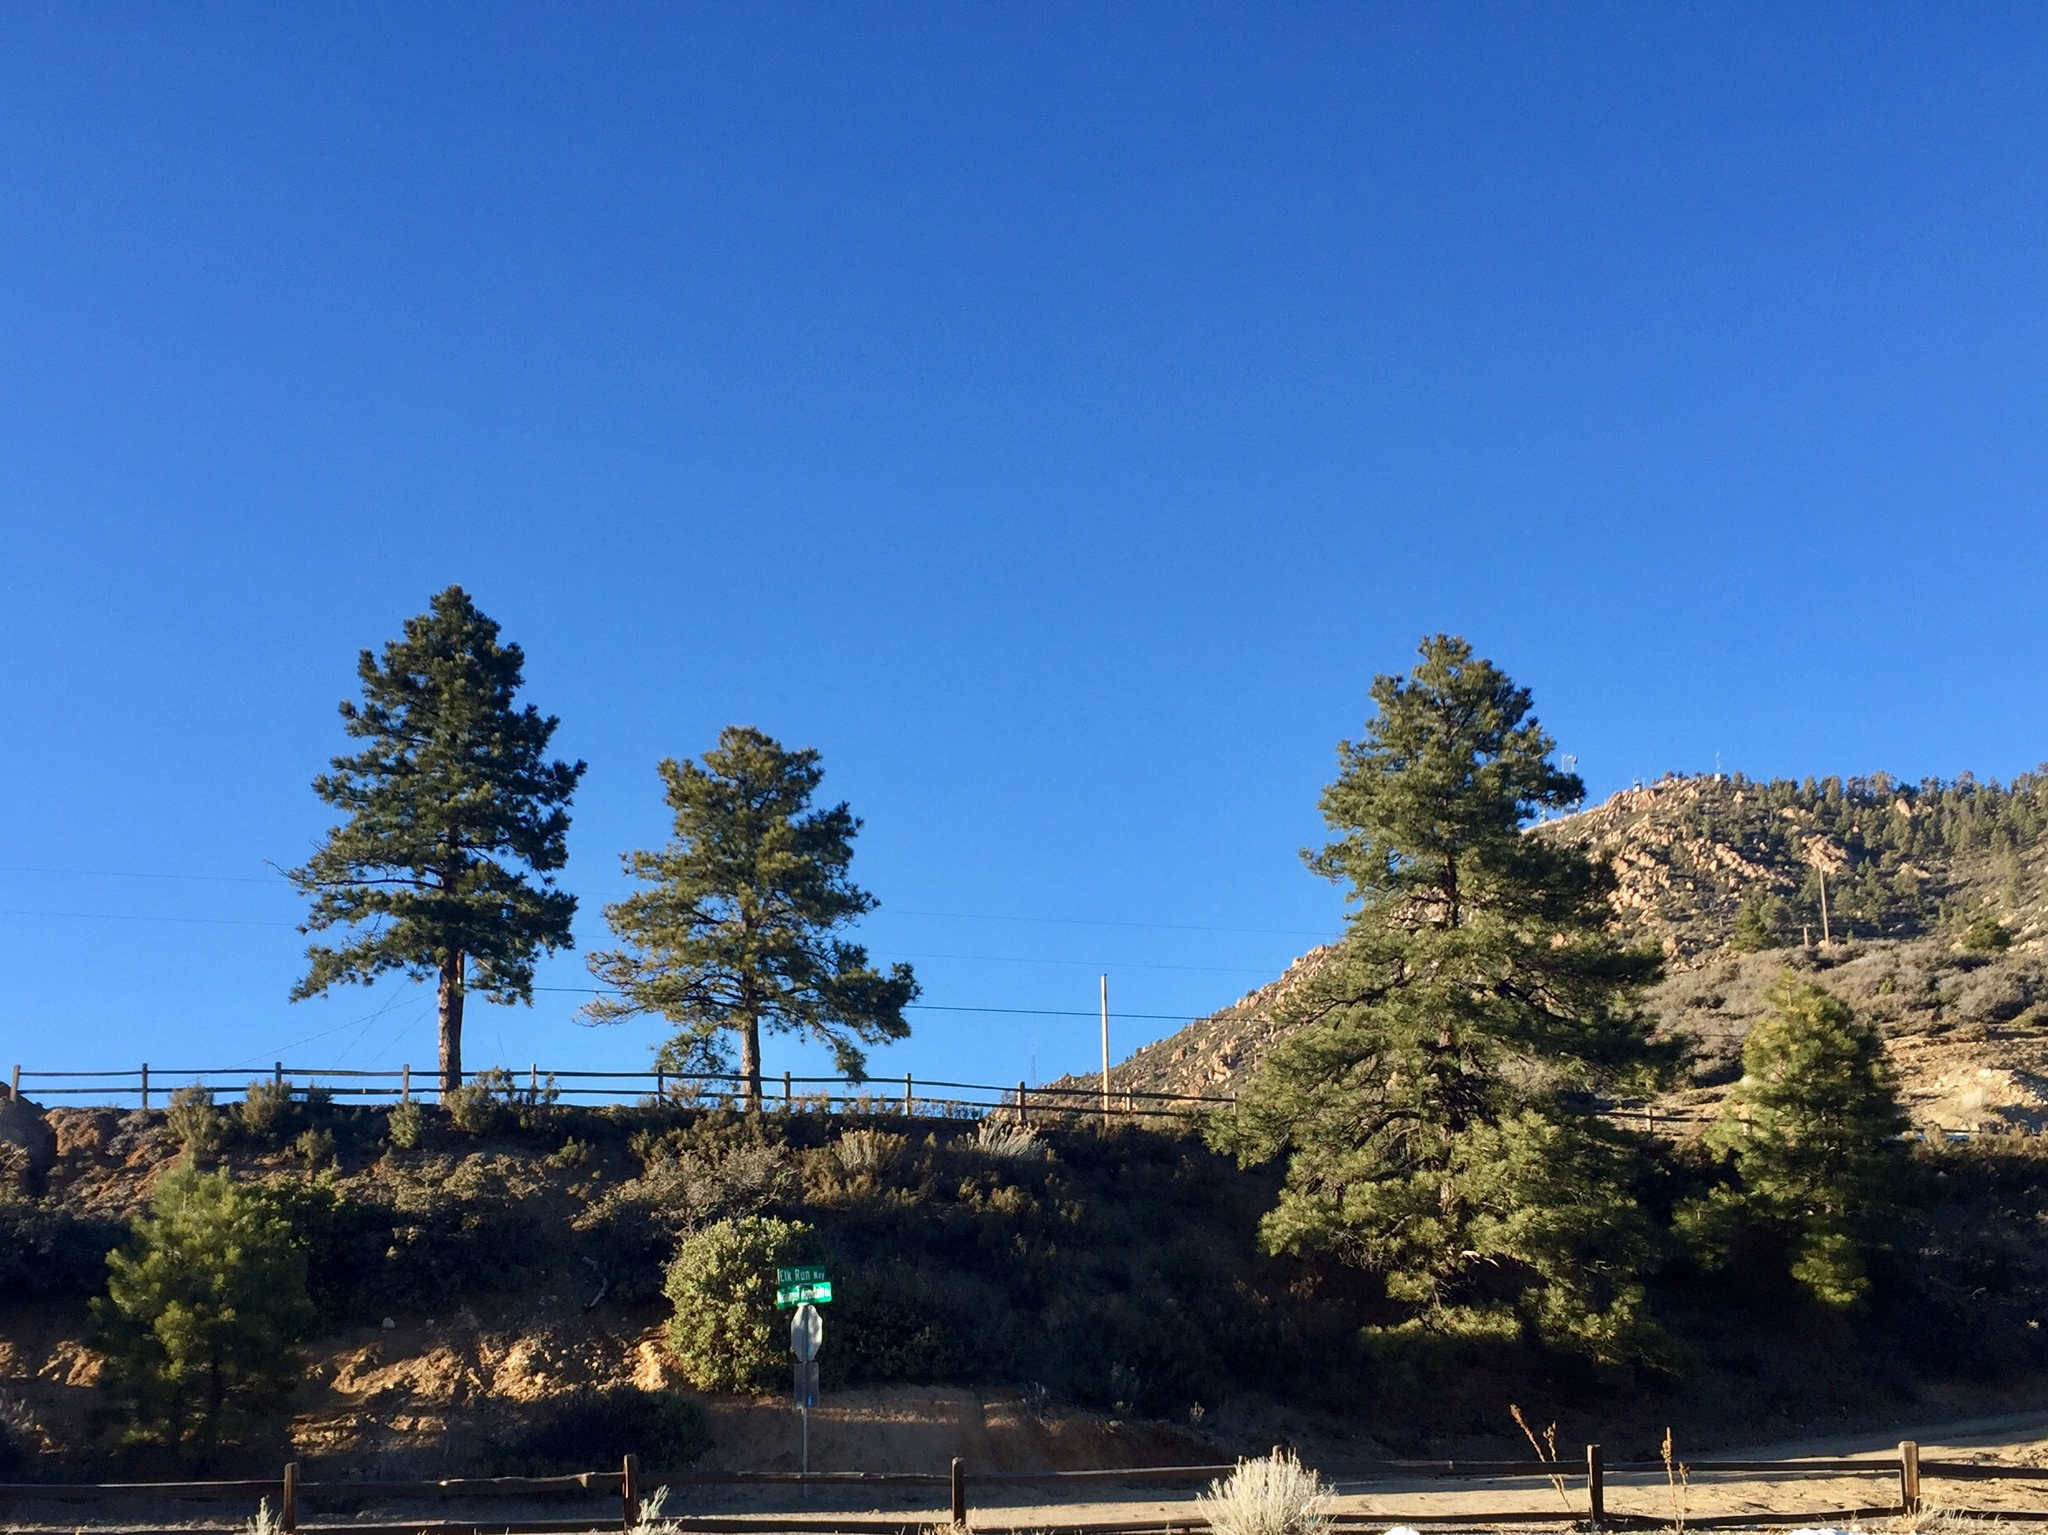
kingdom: Plantae
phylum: Tracheophyta
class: Pinopsida
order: Pinales
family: Pinaceae
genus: Pinus
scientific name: Pinus ponderosa
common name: Western yellow-pine
